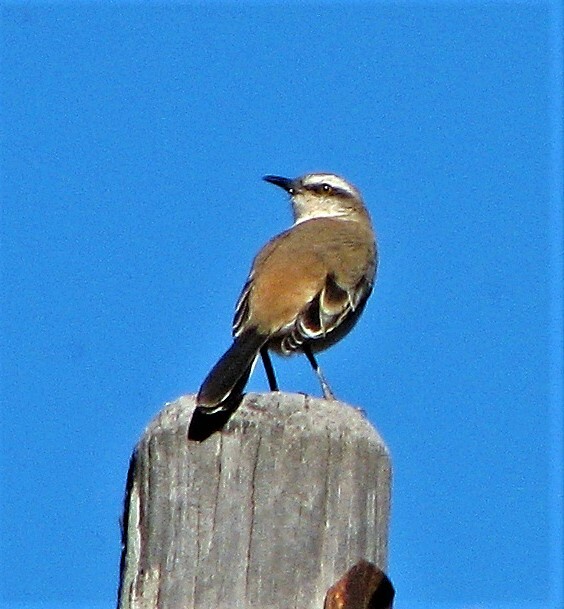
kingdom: Animalia
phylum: Chordata
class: Aves
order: Passeriformes
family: Mimidae
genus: Mimus
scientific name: Mimus dorsalis
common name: Brown-backed mockingbird
